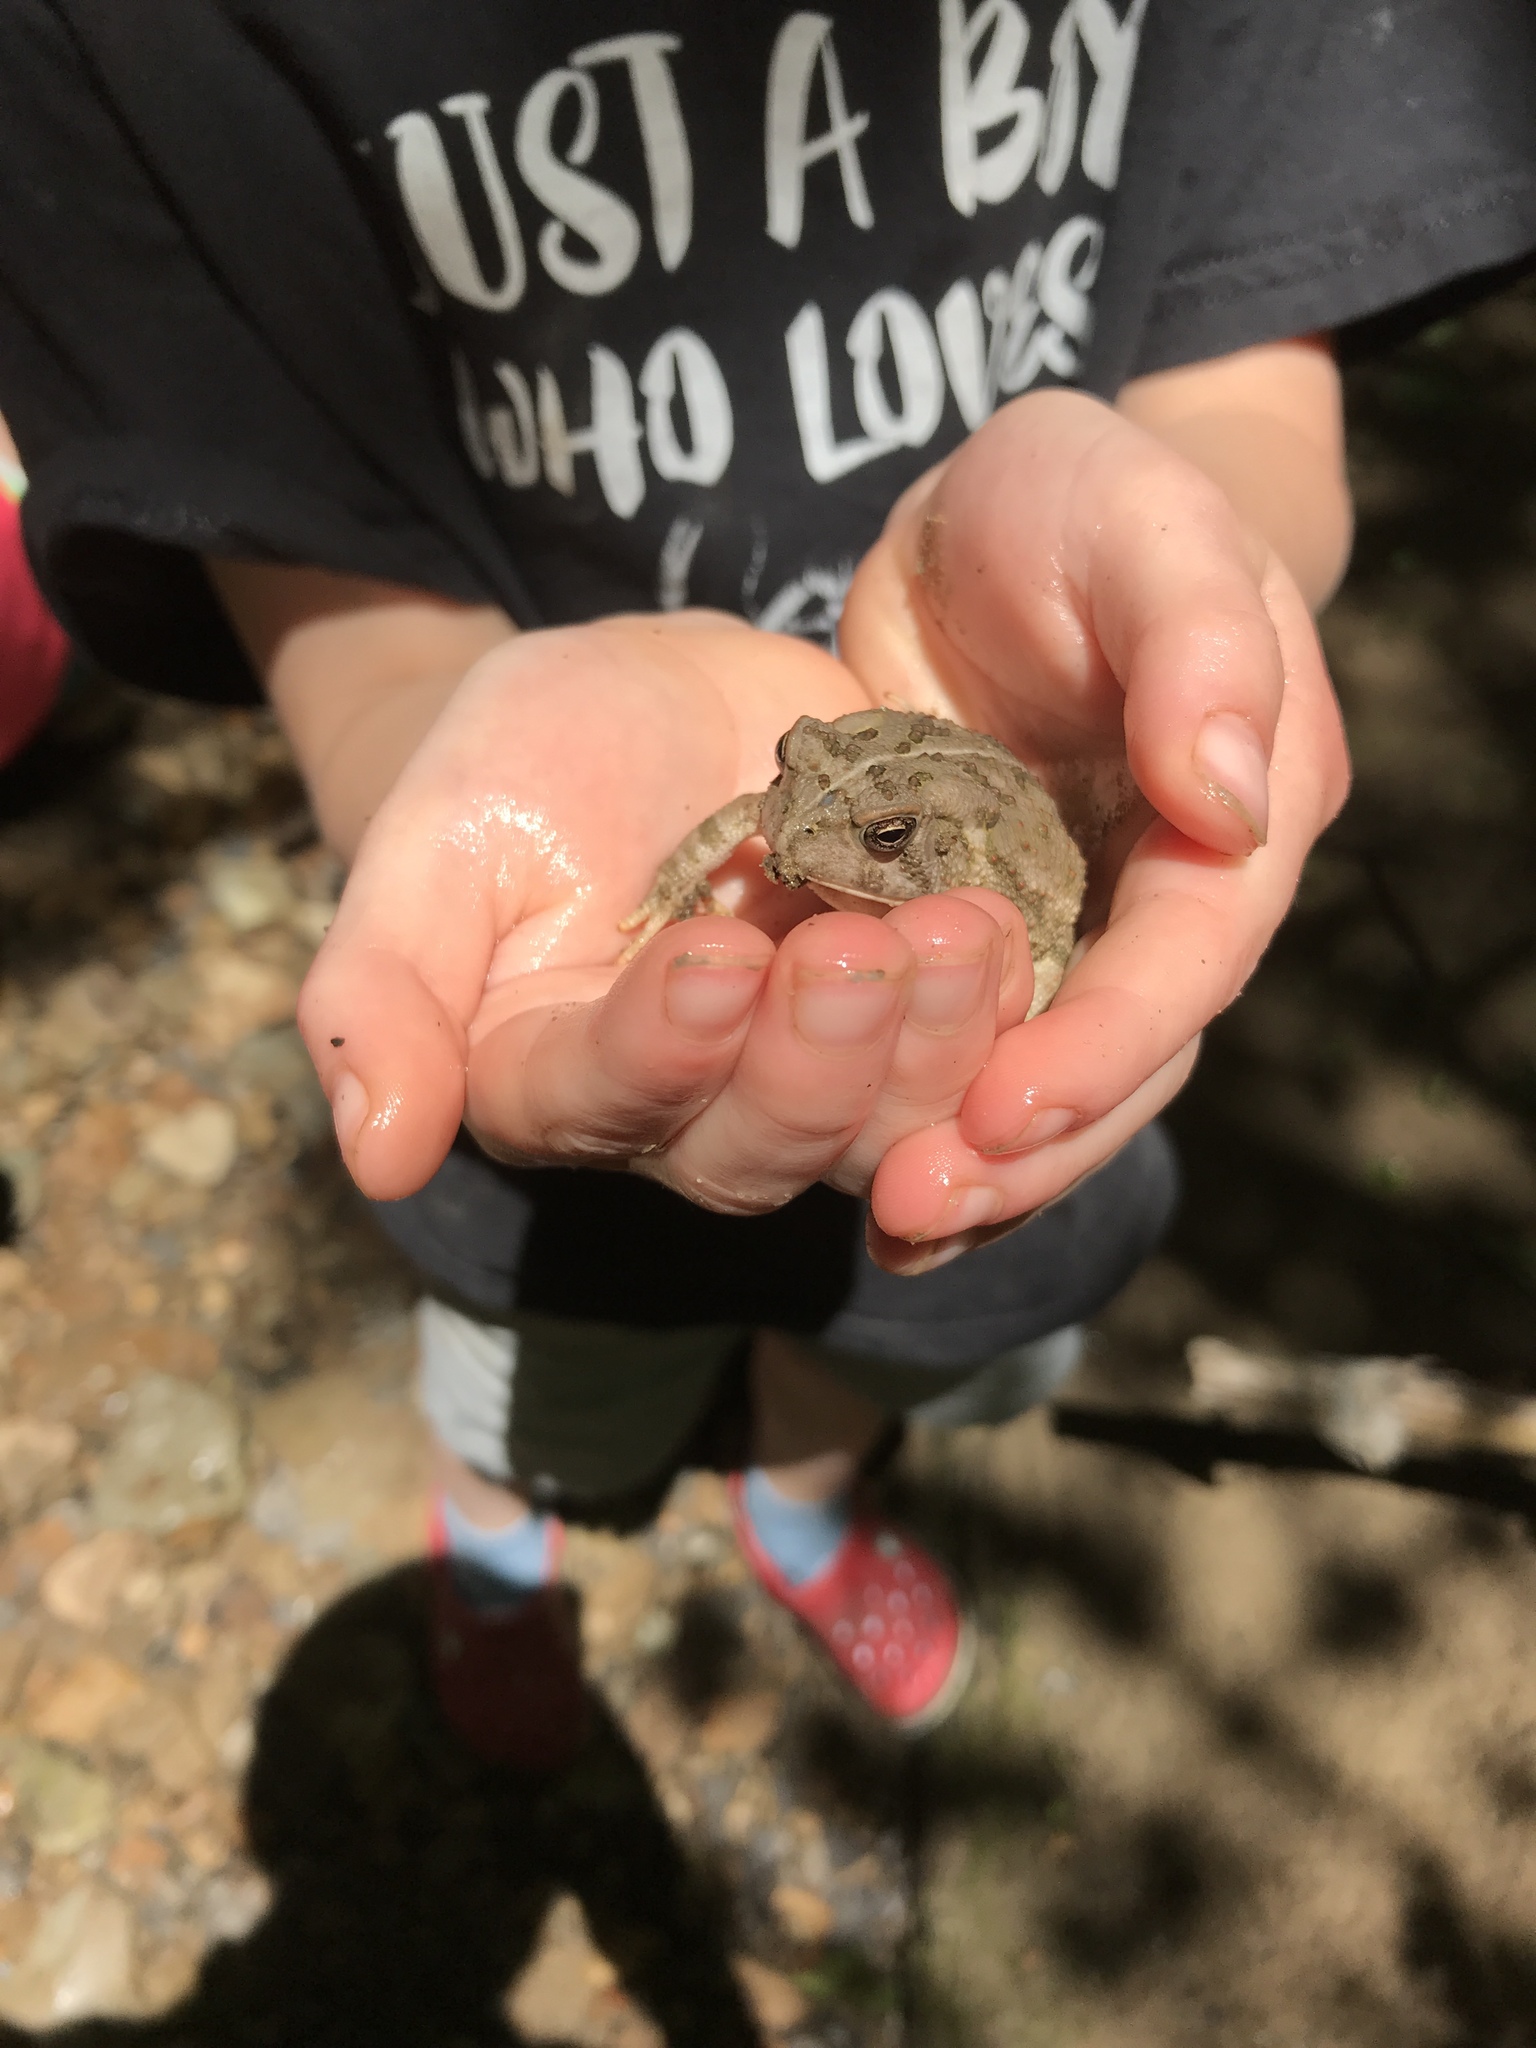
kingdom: Animalia
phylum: Chordata
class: Amphibia
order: Anura
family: Bufonidae
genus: Anaxyrus
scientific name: Anaxyrus americanus
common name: American toad
